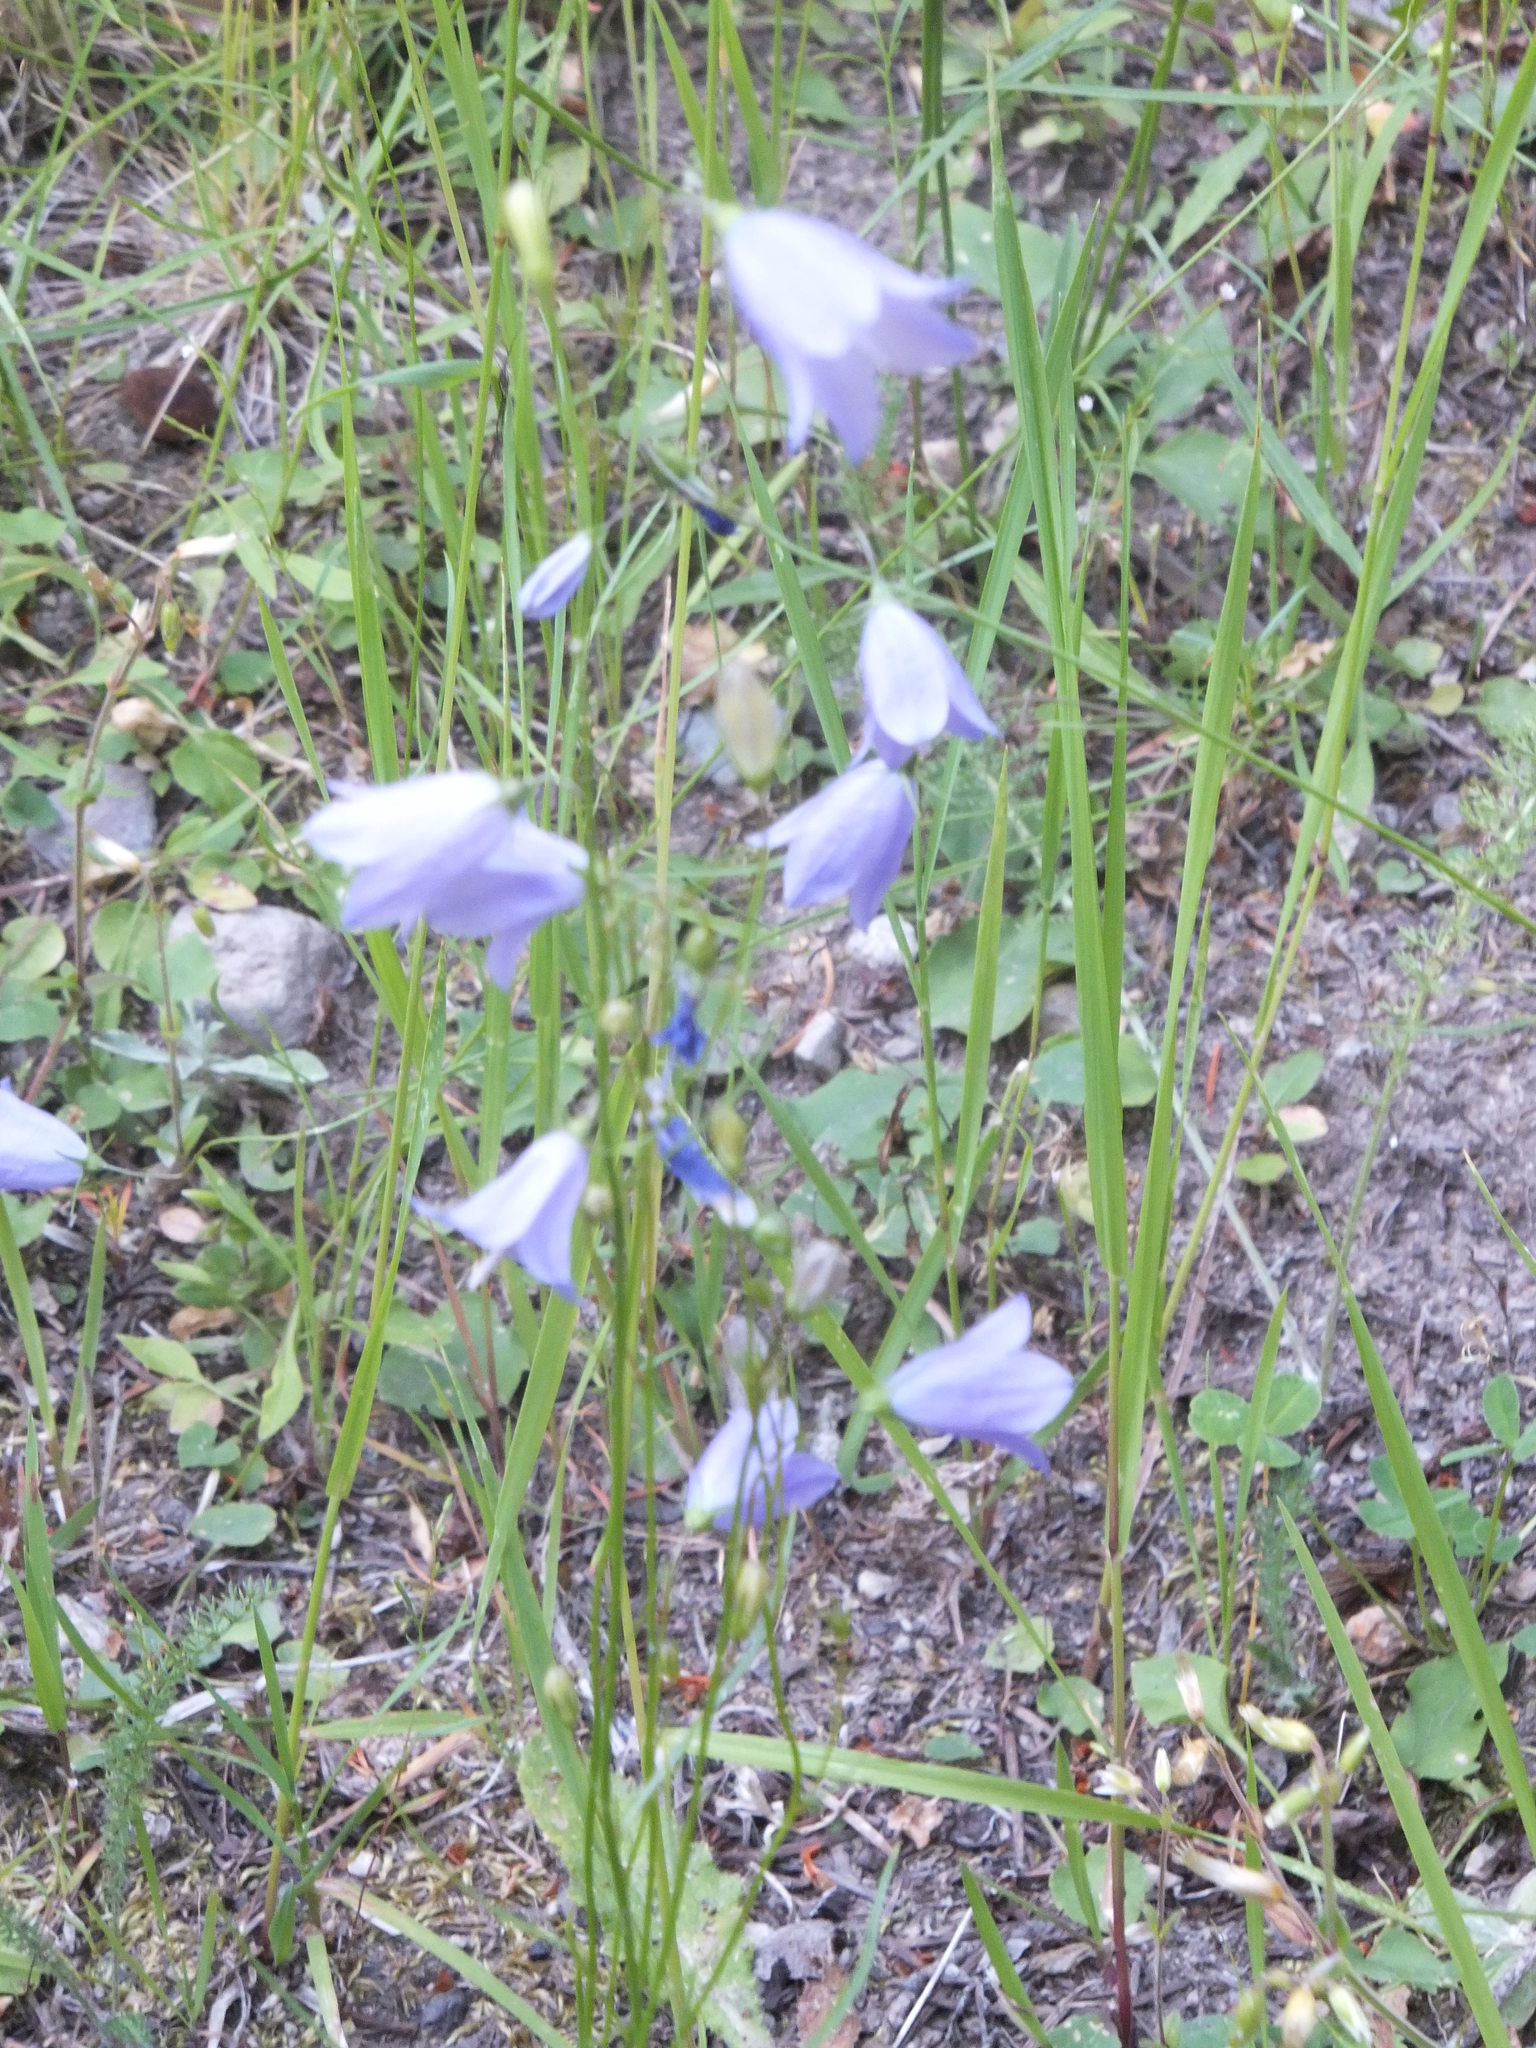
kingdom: Plantae
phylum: Tracheophyta
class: Magnoliopsida
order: Asterales
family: Campanulaceae
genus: Campanula
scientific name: Campanula alaskana
